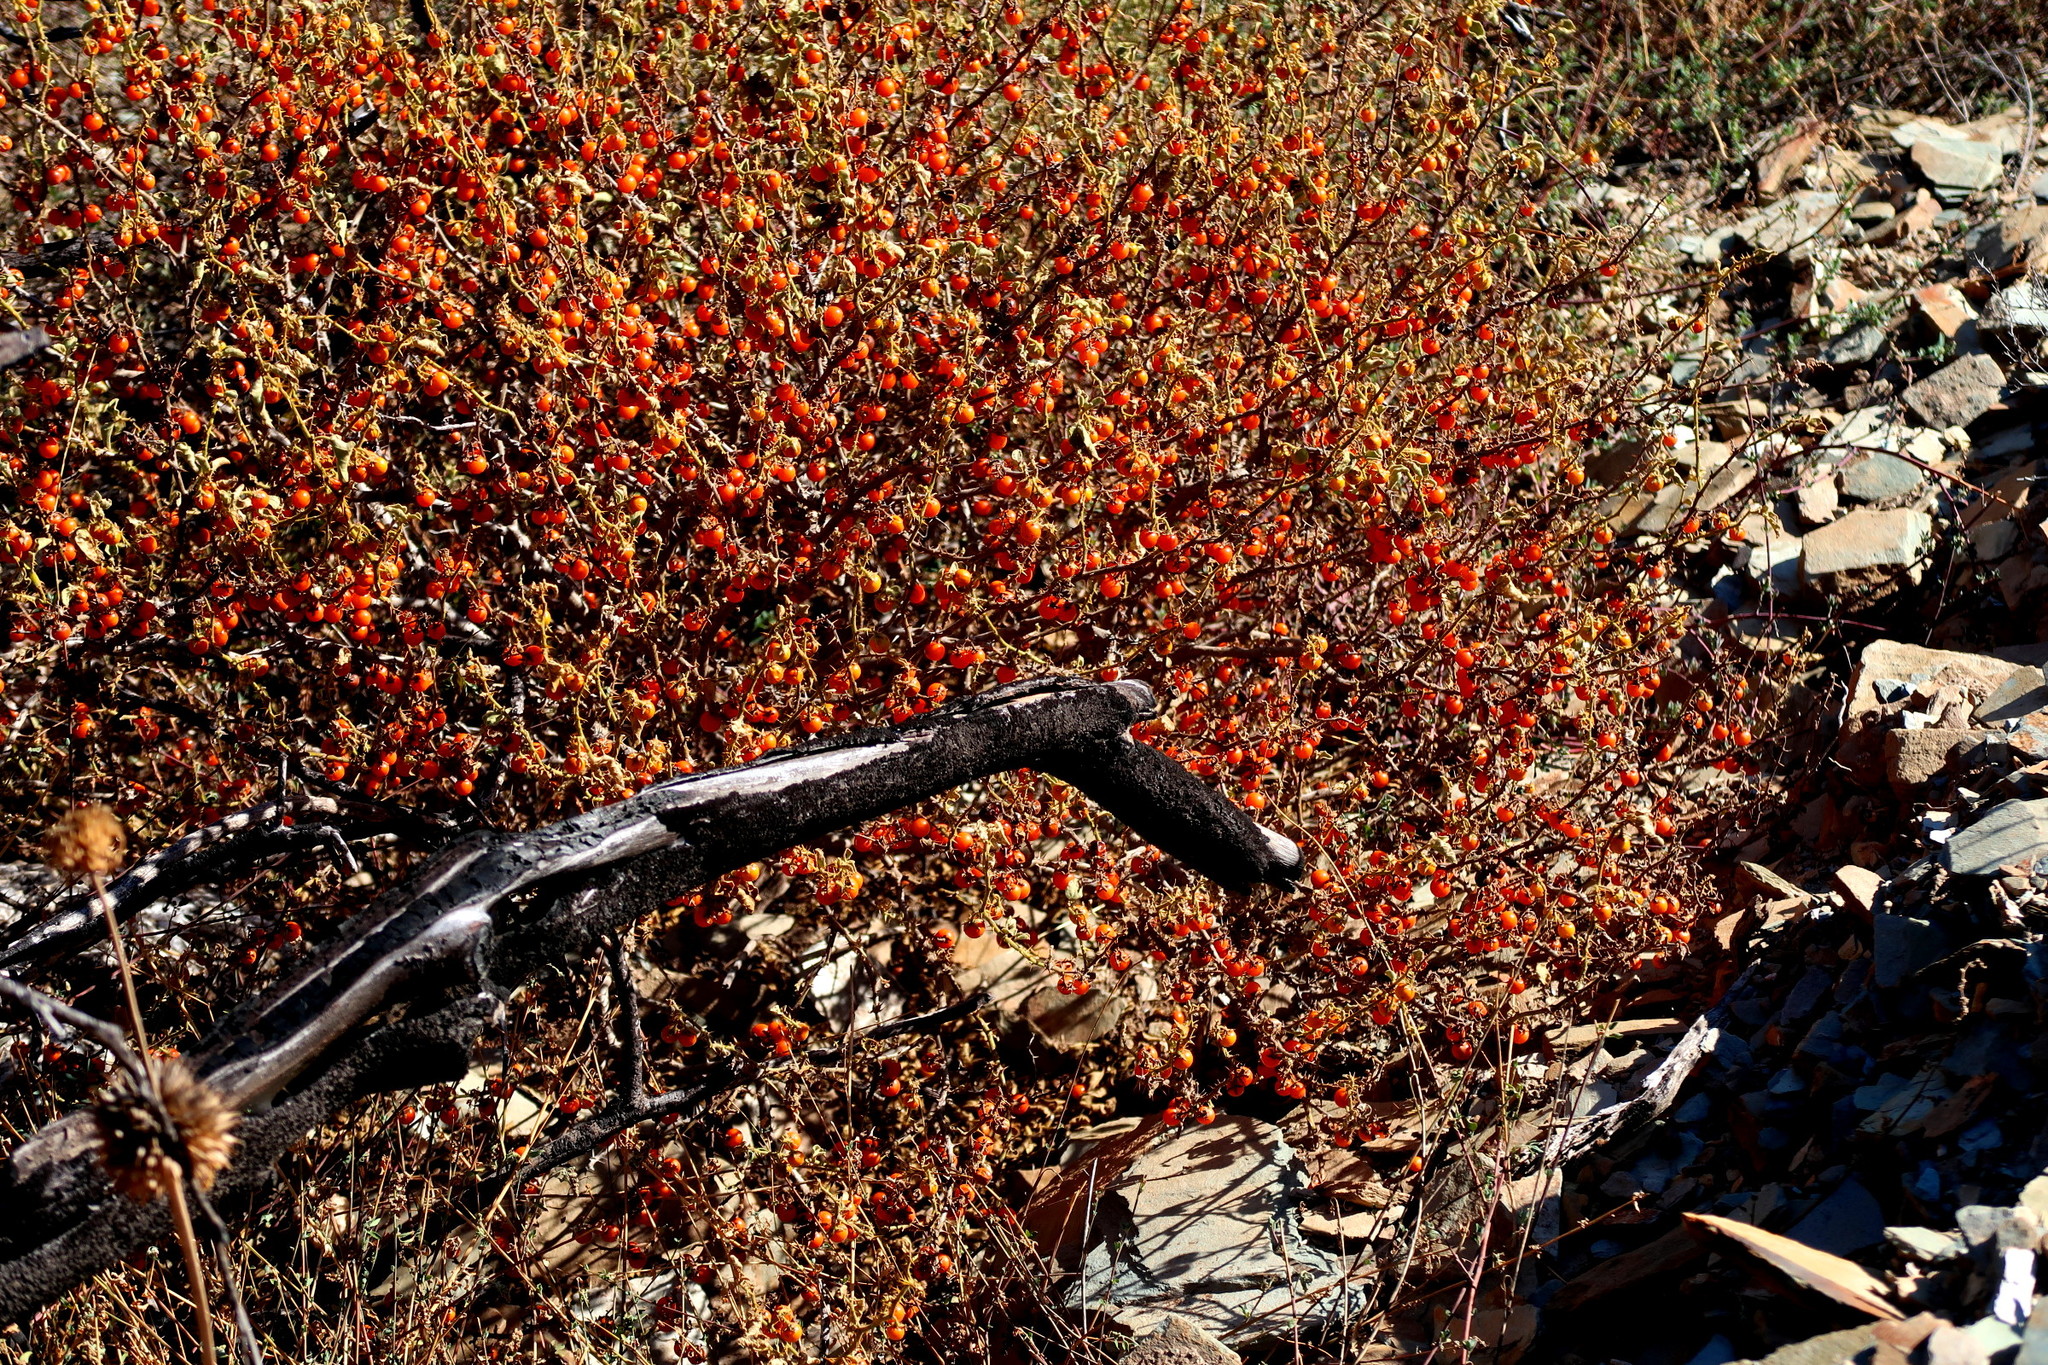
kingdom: Plantae
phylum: Tracheophyta
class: Magnoliopsida
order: Solanales
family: Solanaceae
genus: Solanum
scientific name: Solanum tomentosum
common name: Wild aubergine
